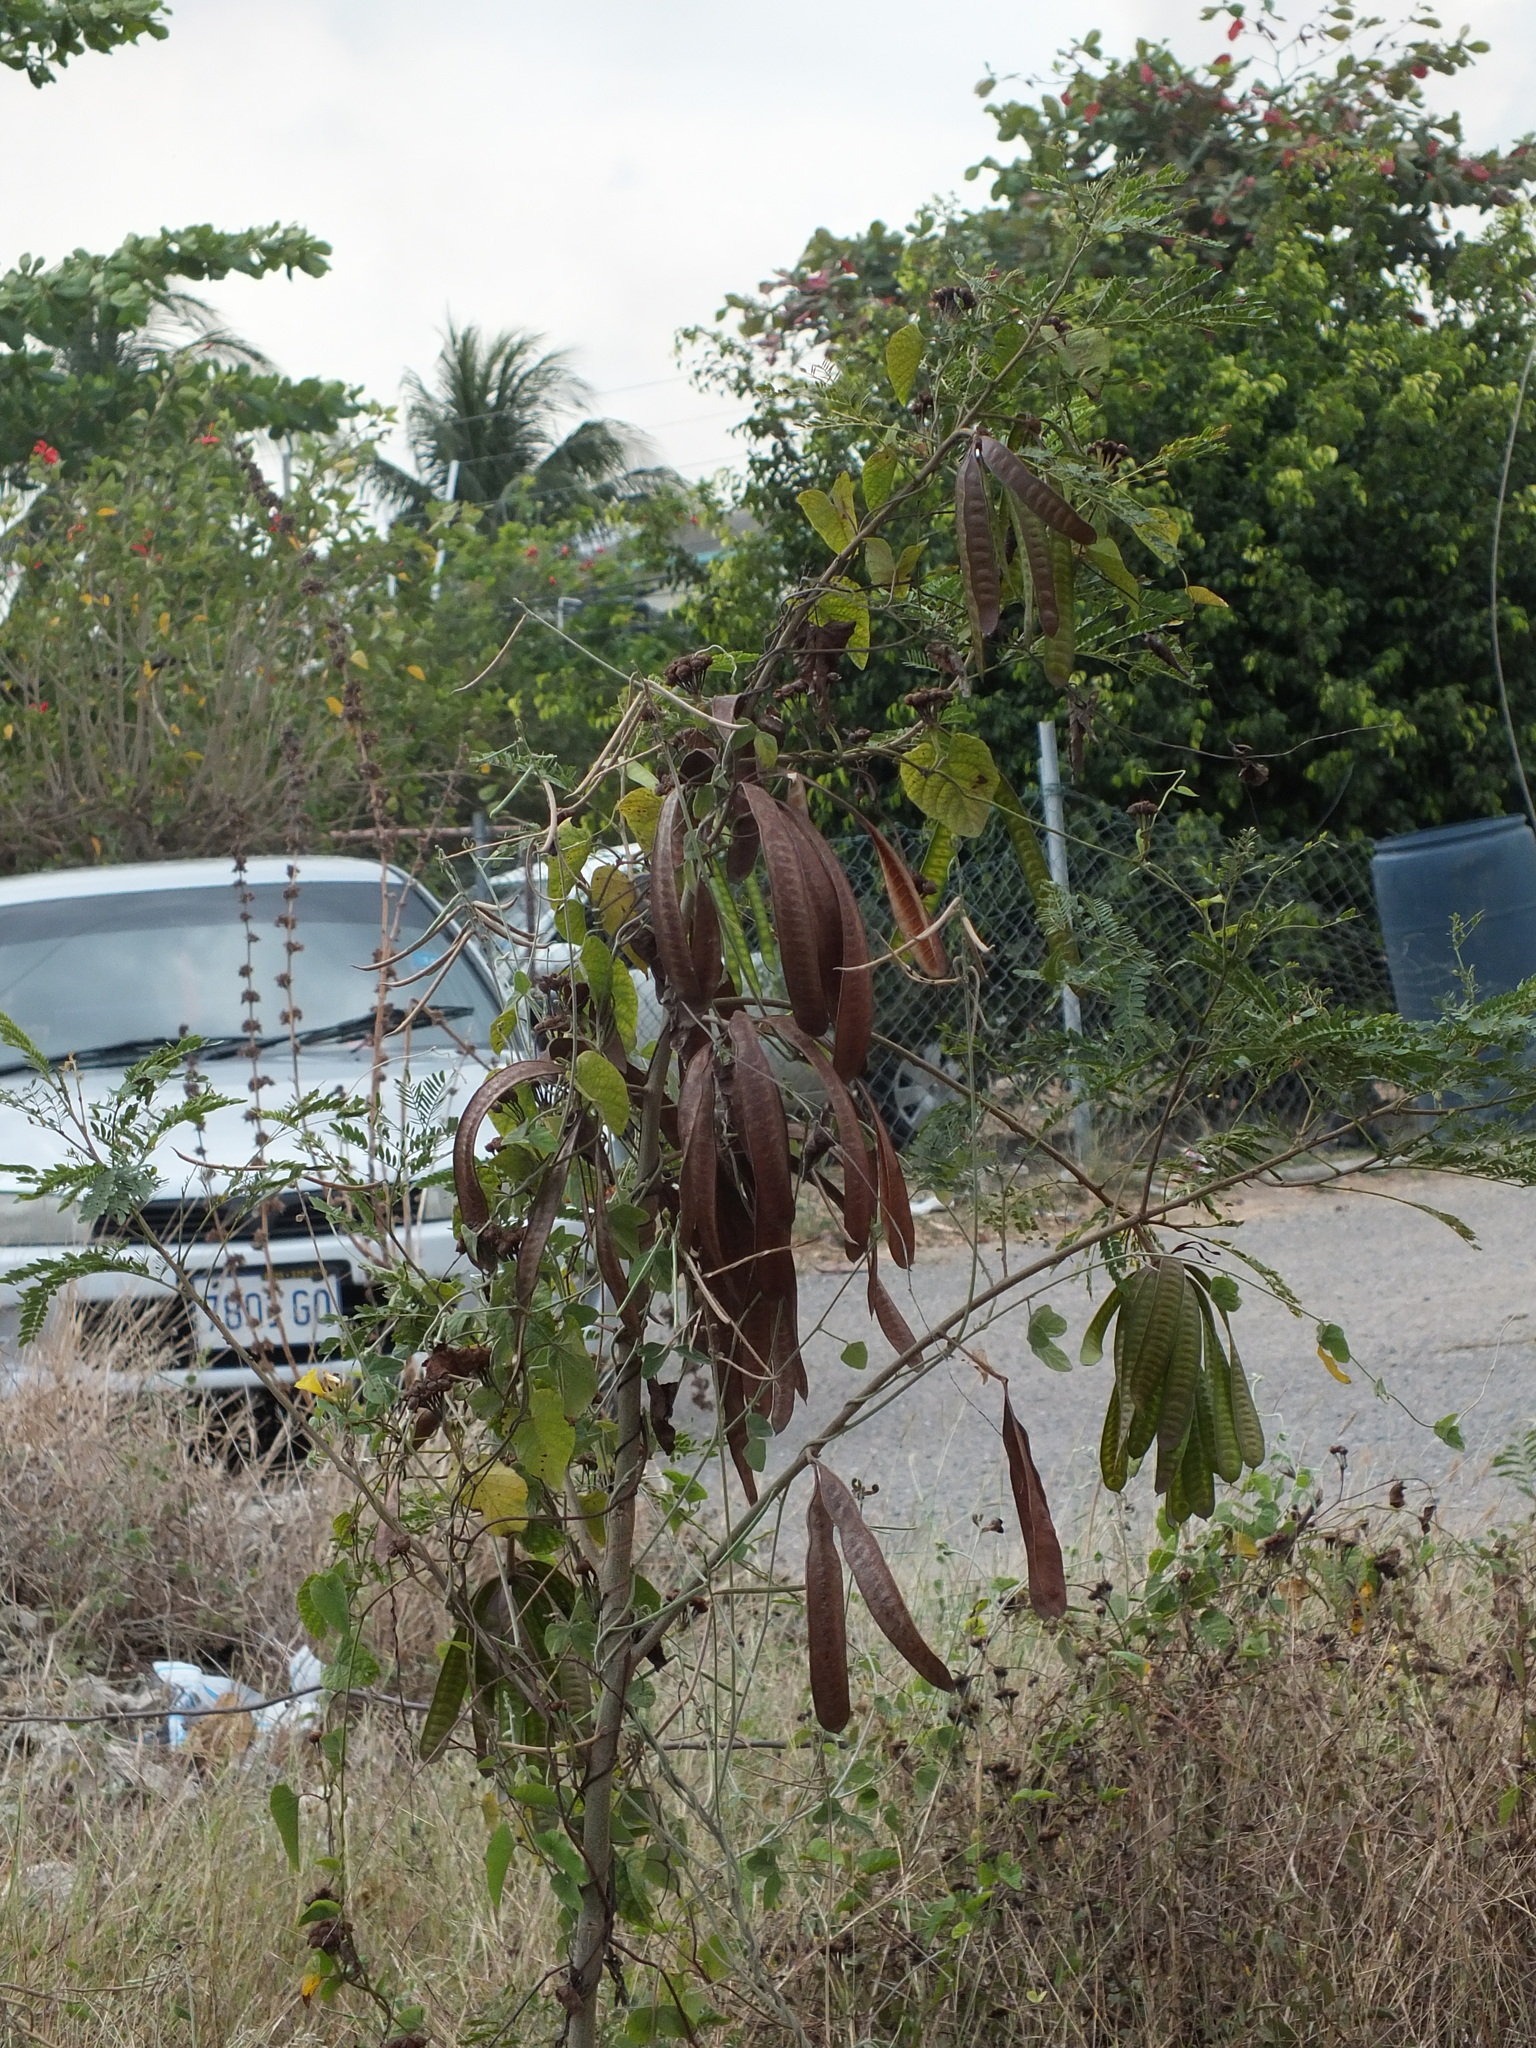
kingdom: Plantae
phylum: Tracheophyta
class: Magnoliopsida
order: Fabales
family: Fabaceae
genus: Leucaena
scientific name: Leucaena leucocephala
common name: White leadtree
